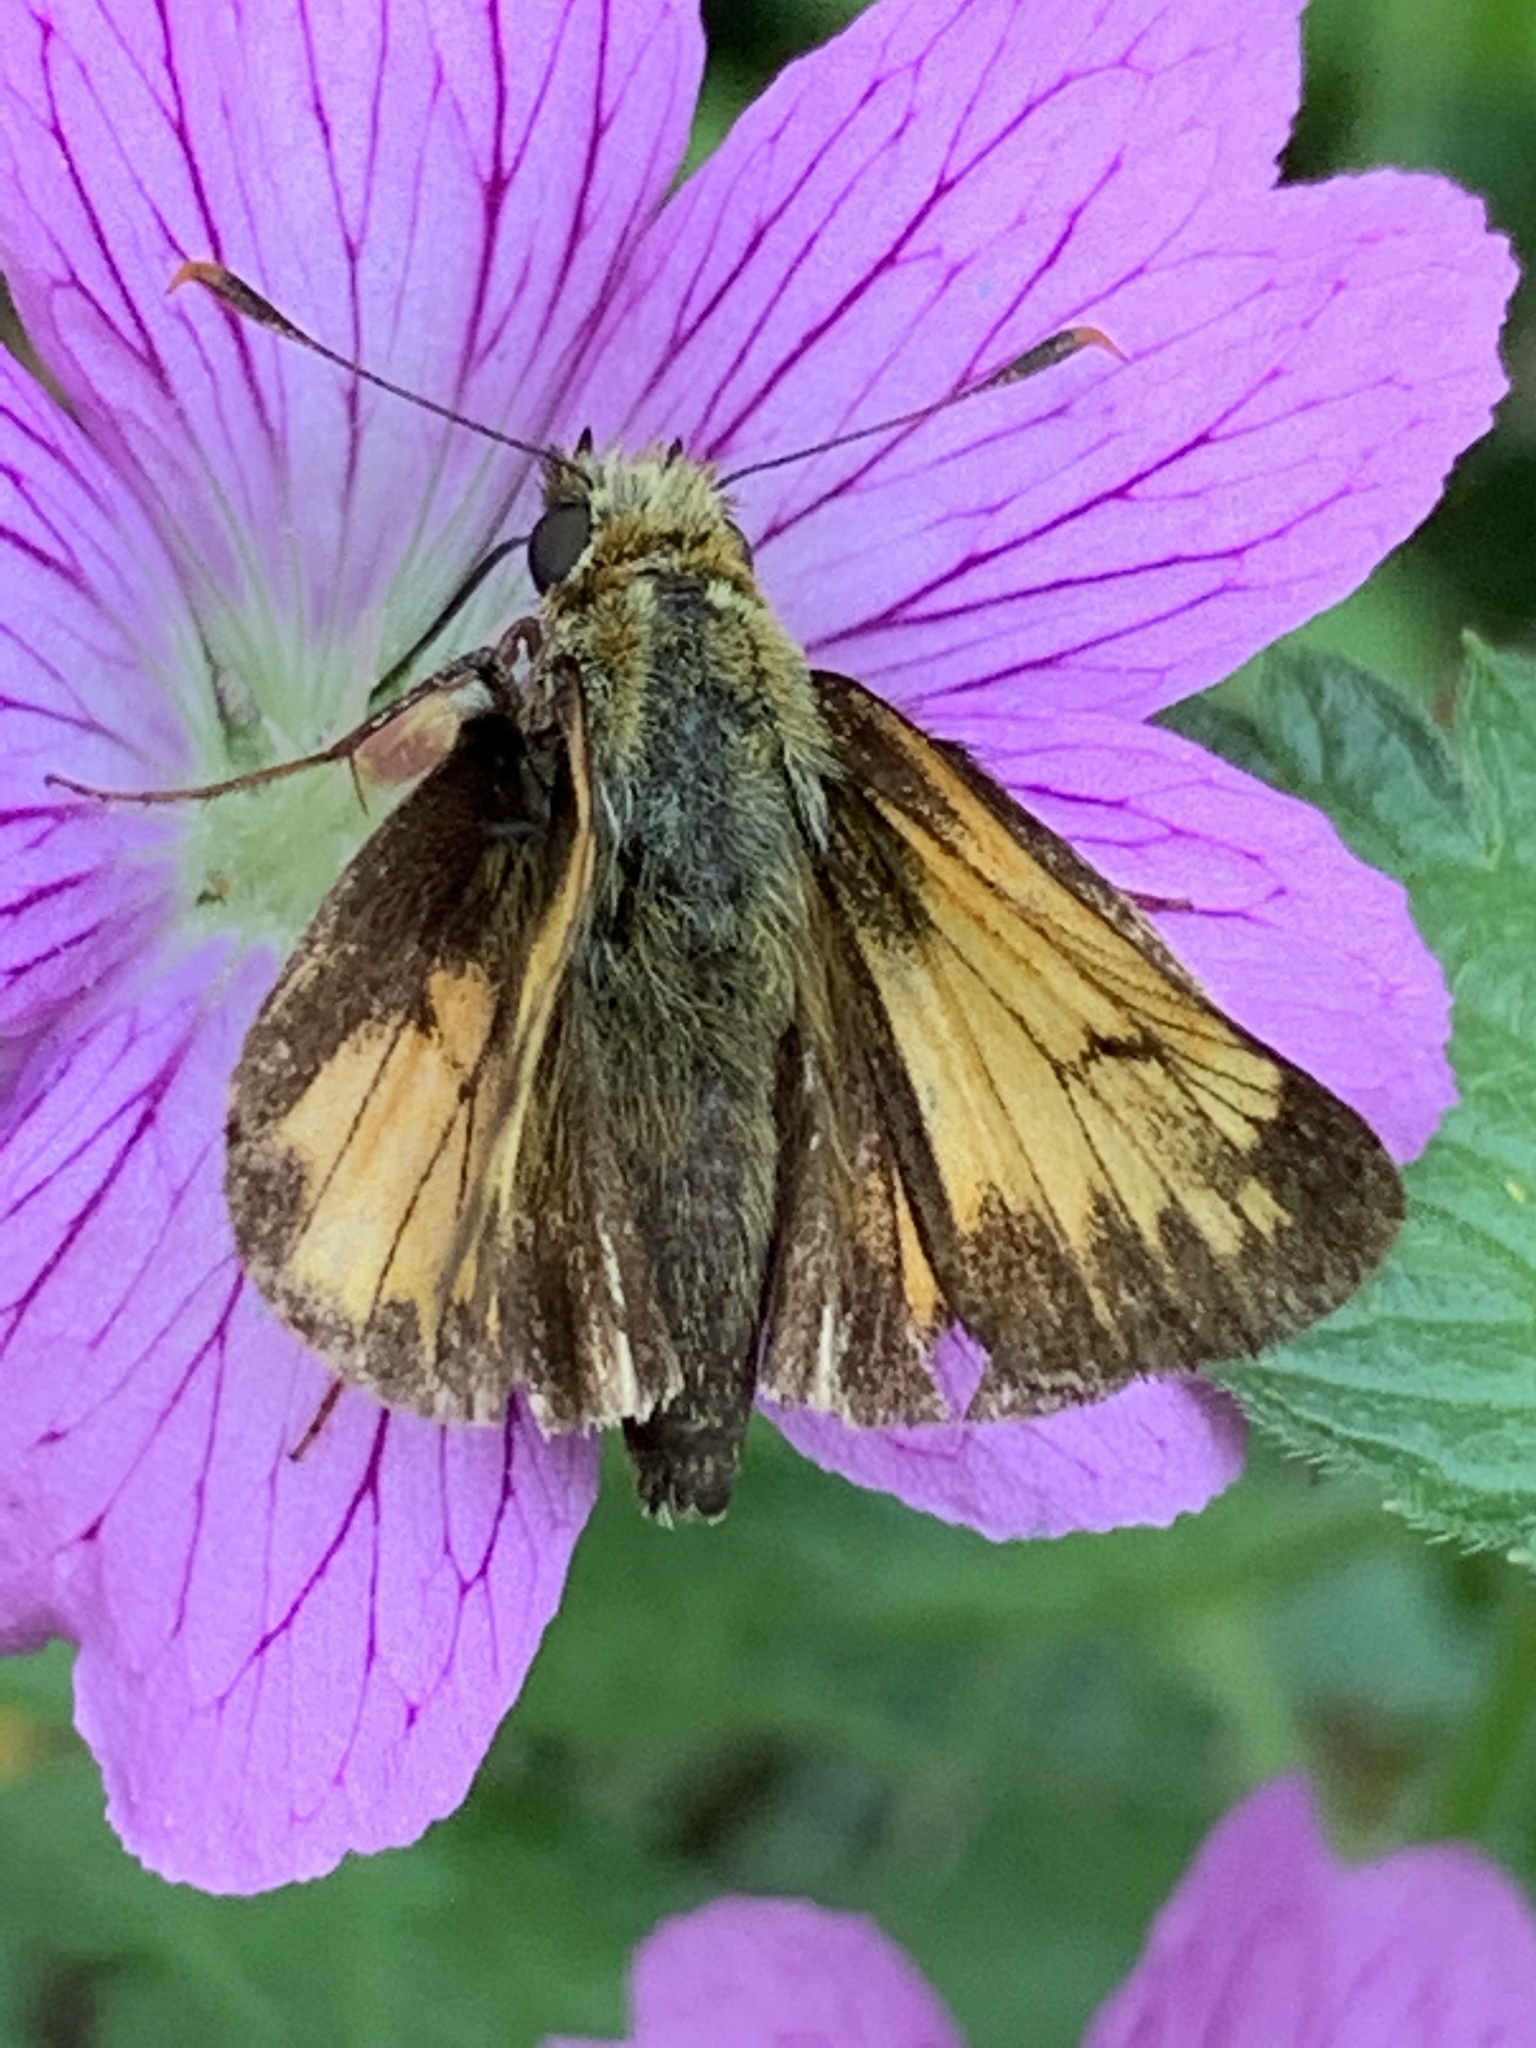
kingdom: Animalia
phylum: Arthropoda
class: Insecta
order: Lepidoptera
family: Hesperiidae
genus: Lon
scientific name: Lon hobomok
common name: Hobomok skipper
